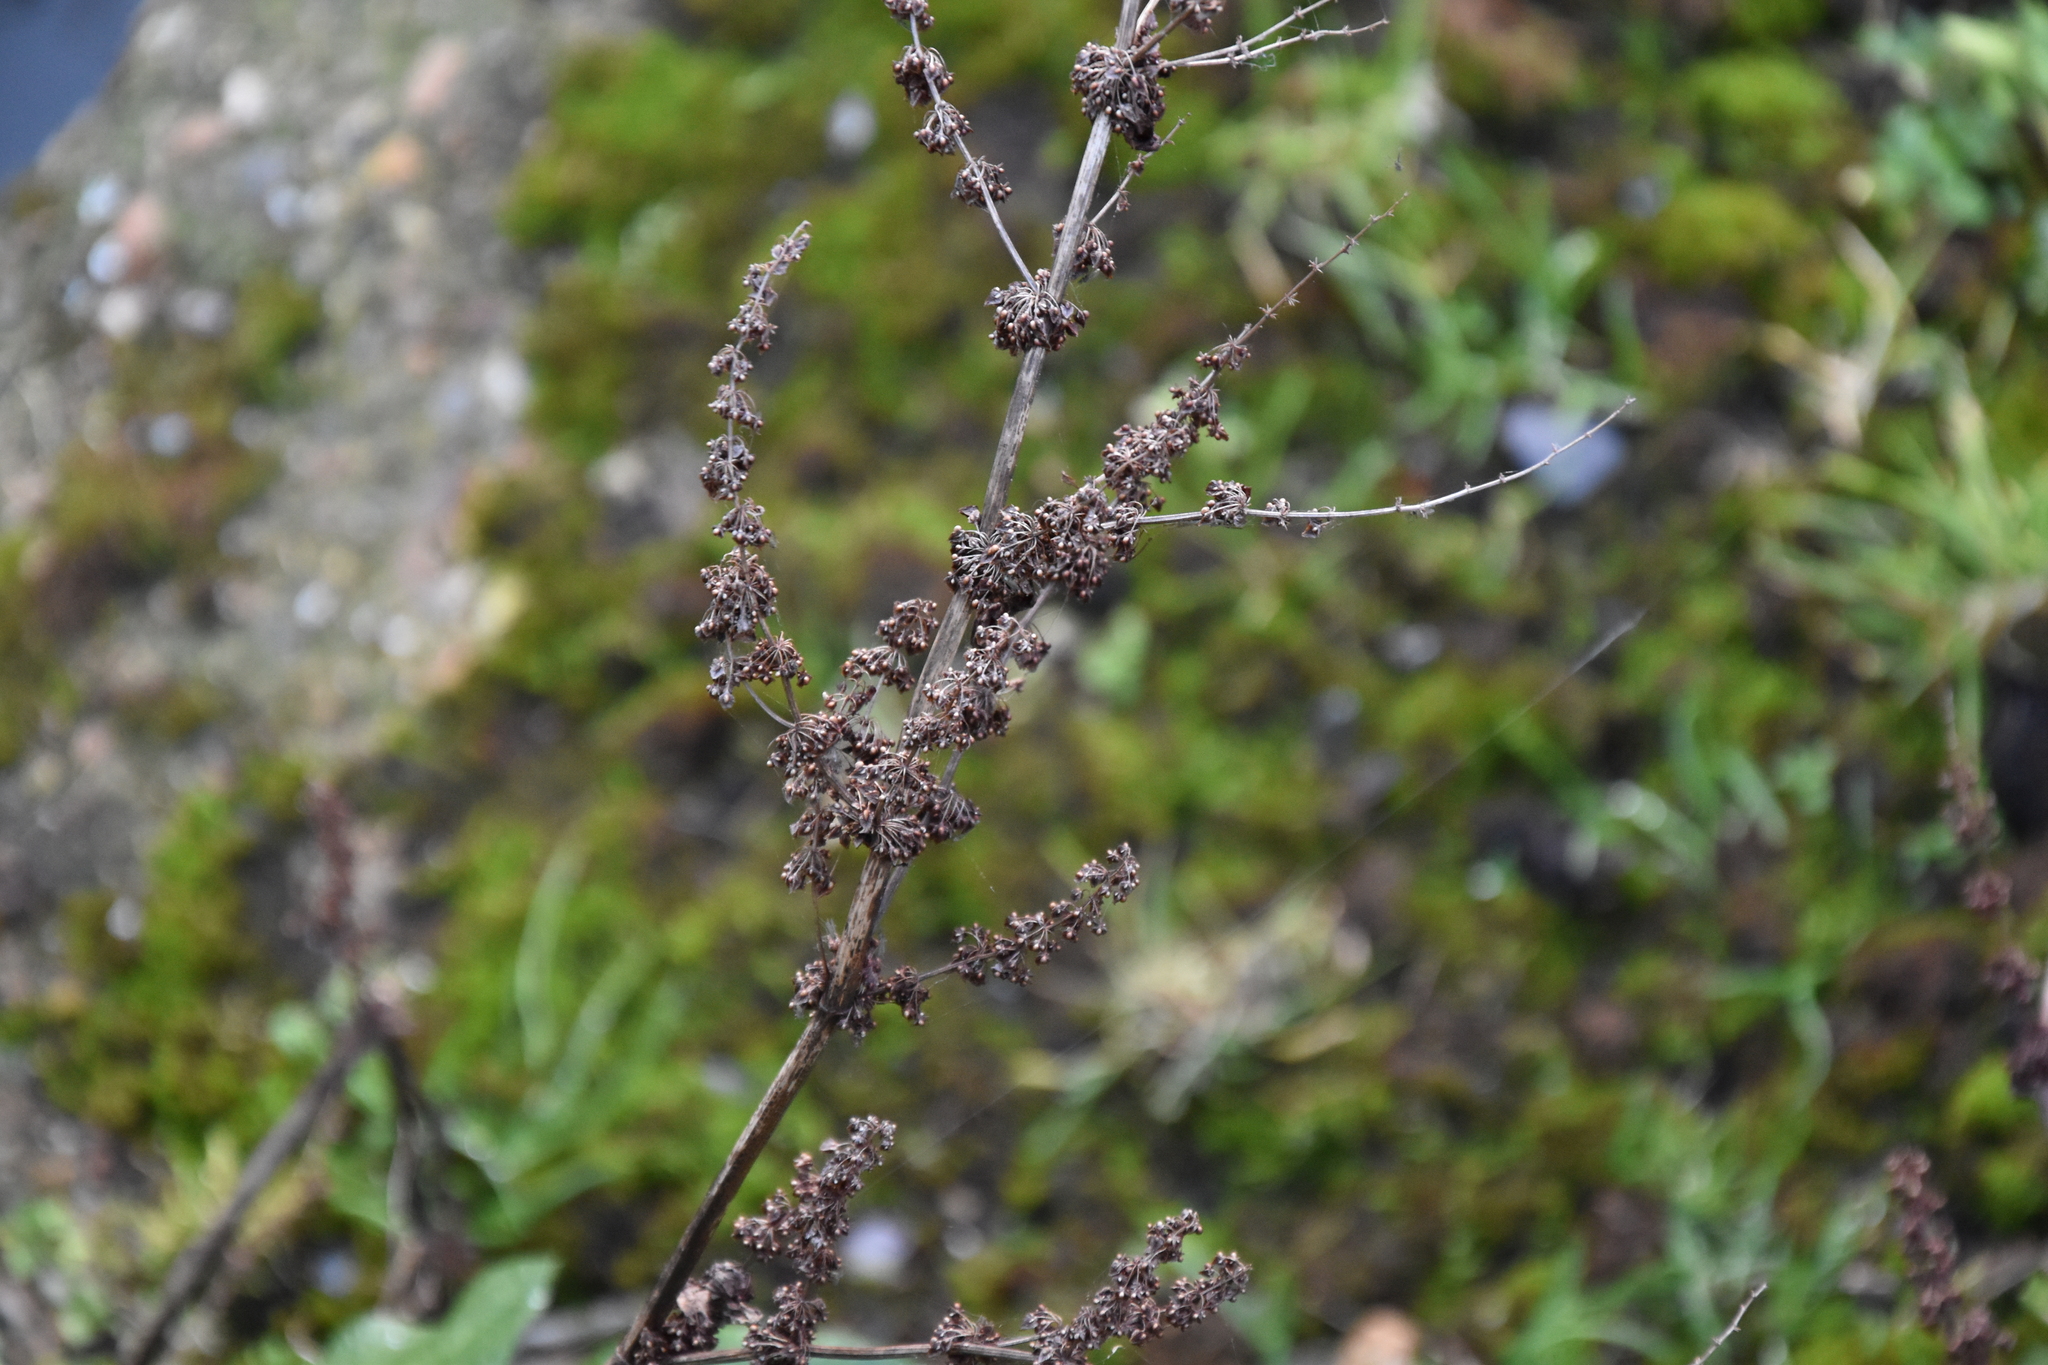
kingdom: Plantae
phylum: Tracheophyta
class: Magnoliopsida
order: Caryophyllales
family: Polygonaceae
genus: Rumex
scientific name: Rumex obtusifolius
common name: Bitter dock
